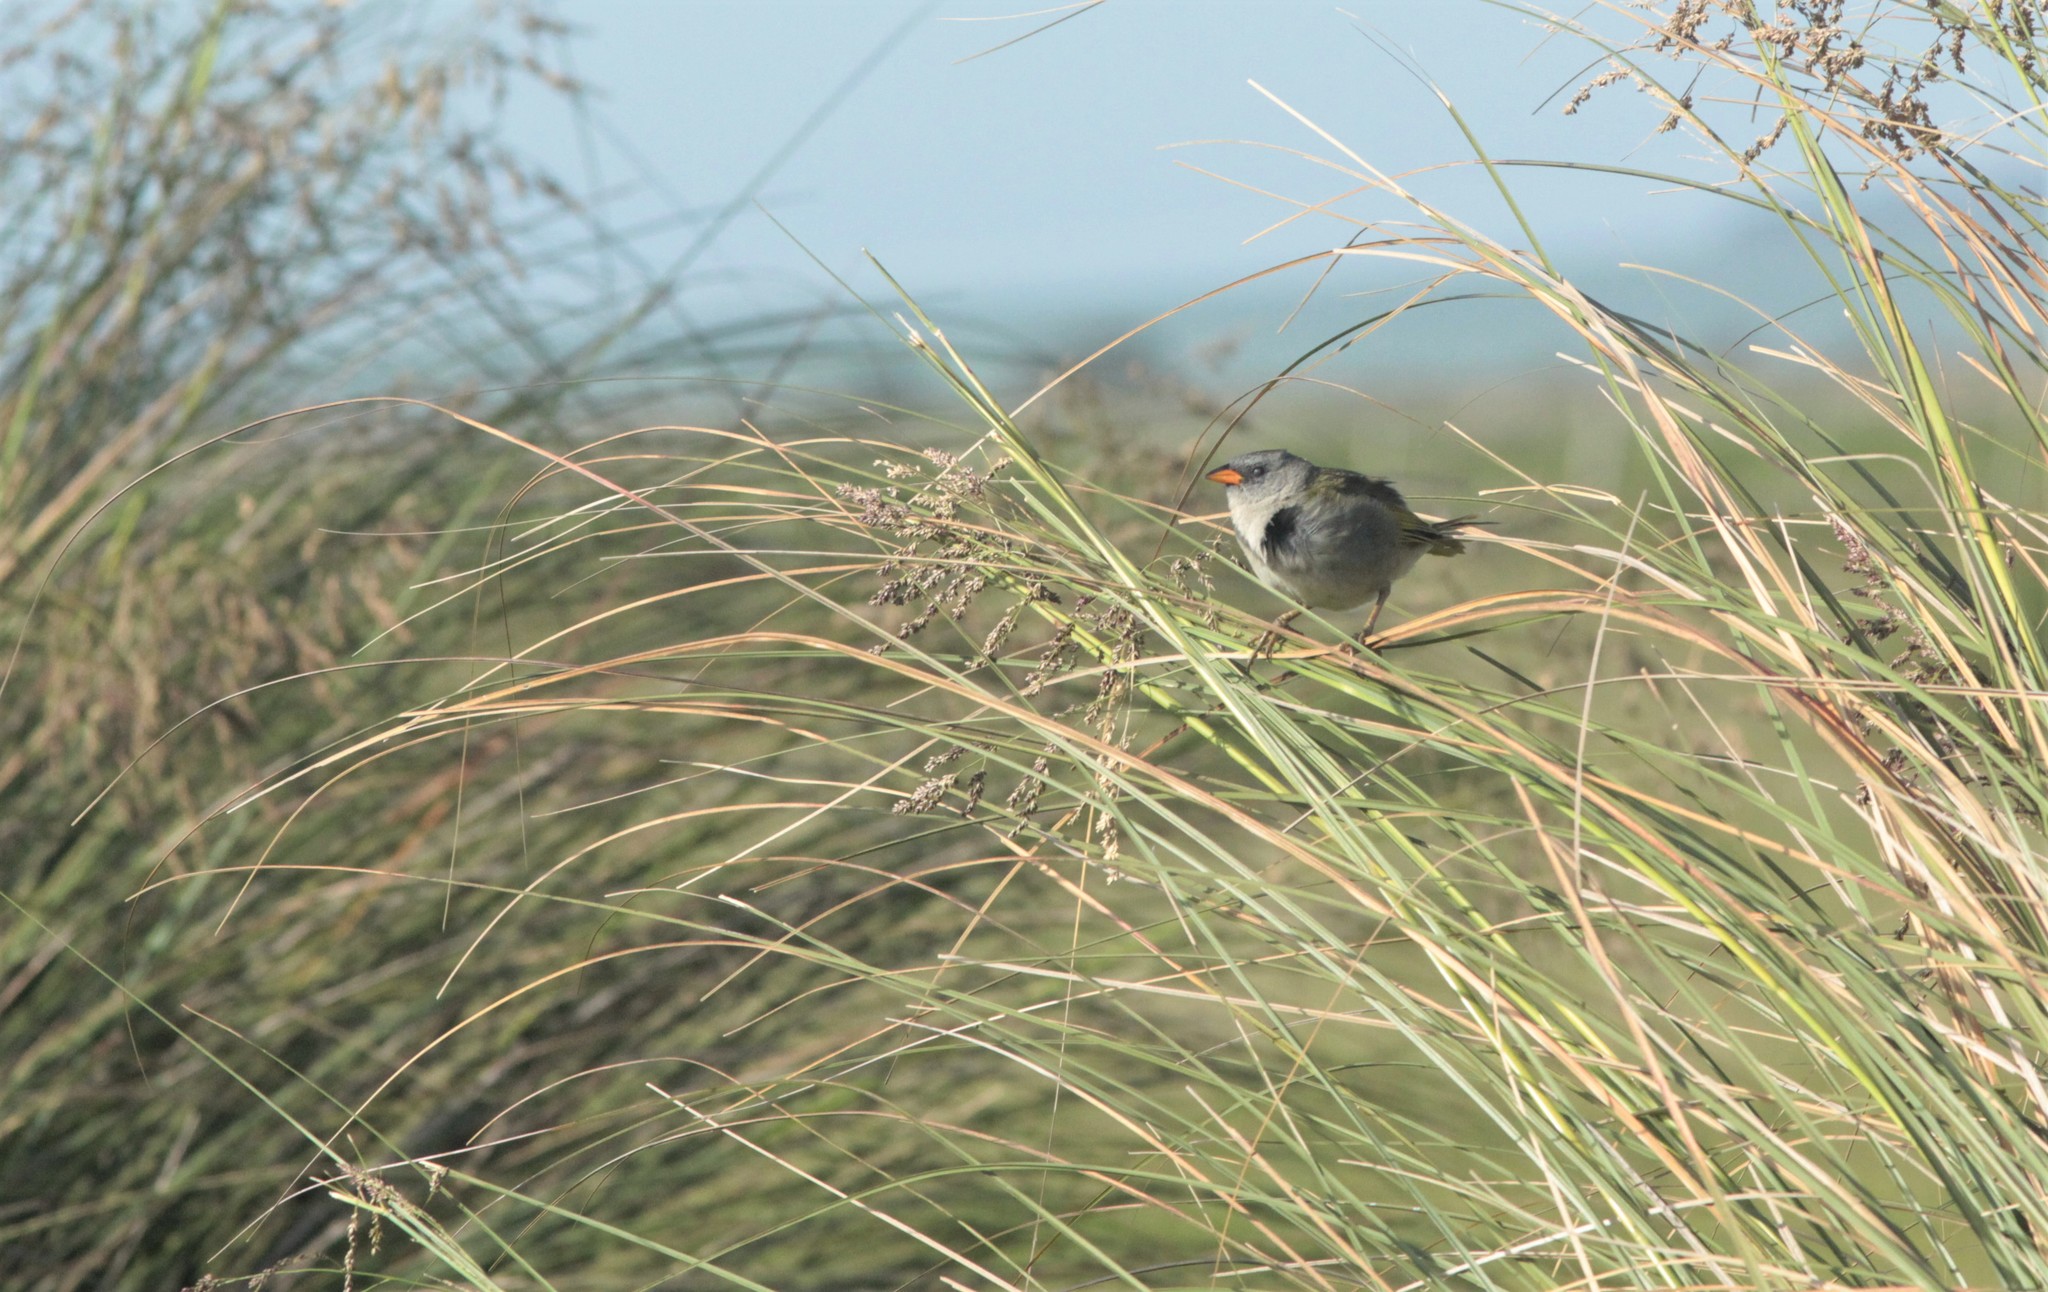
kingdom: Animalia
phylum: Chordata
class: Aves
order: Passeriformes
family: Thraupidae
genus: Embernagra
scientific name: Embernagra platensis
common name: Pampa finch
